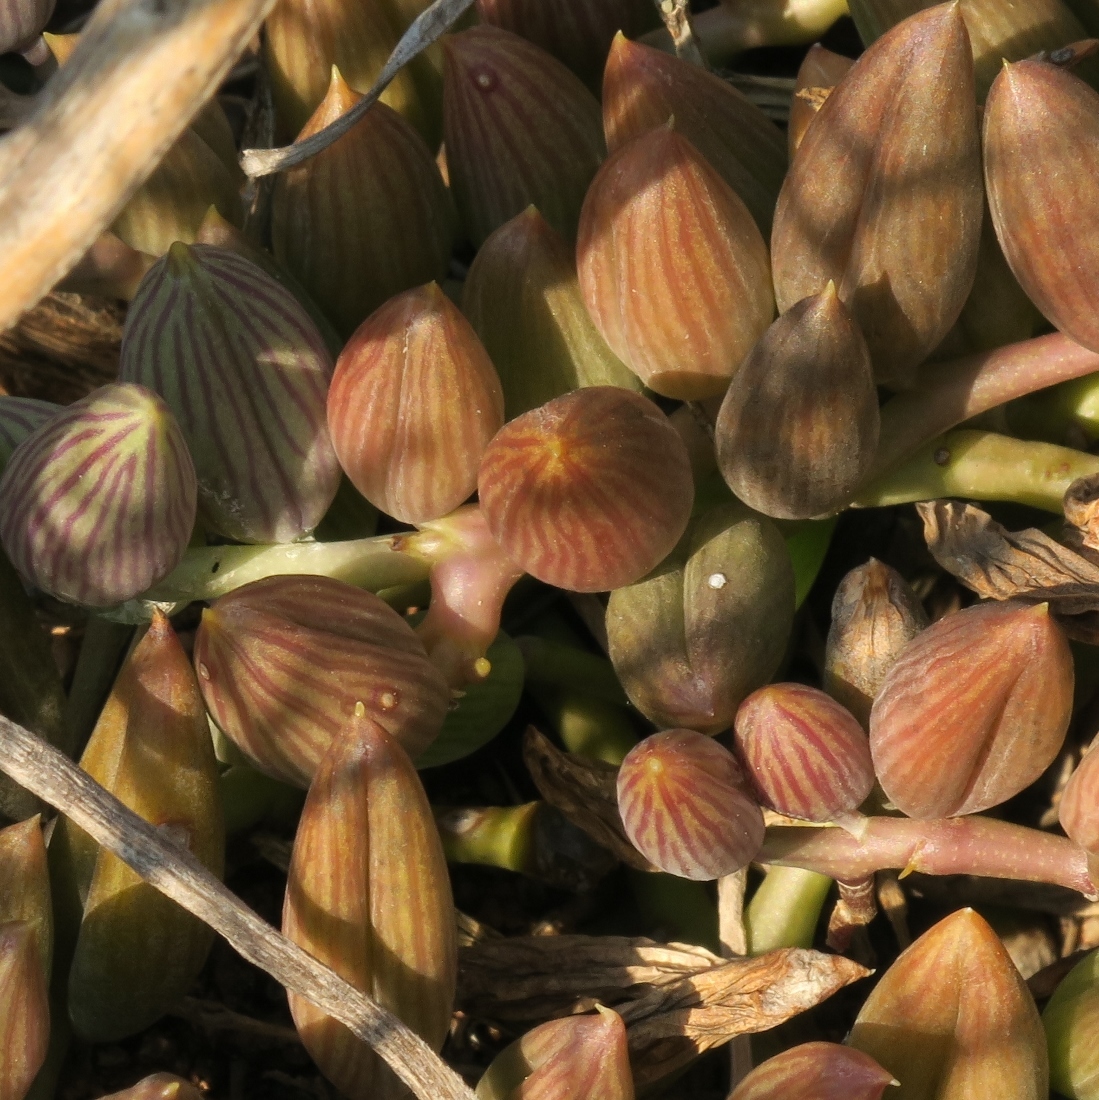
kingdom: Plantae
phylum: Tracheophyta
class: Magnoliopsida
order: Asterales
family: Asteraceae
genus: Curio
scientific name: Curio herreanus
